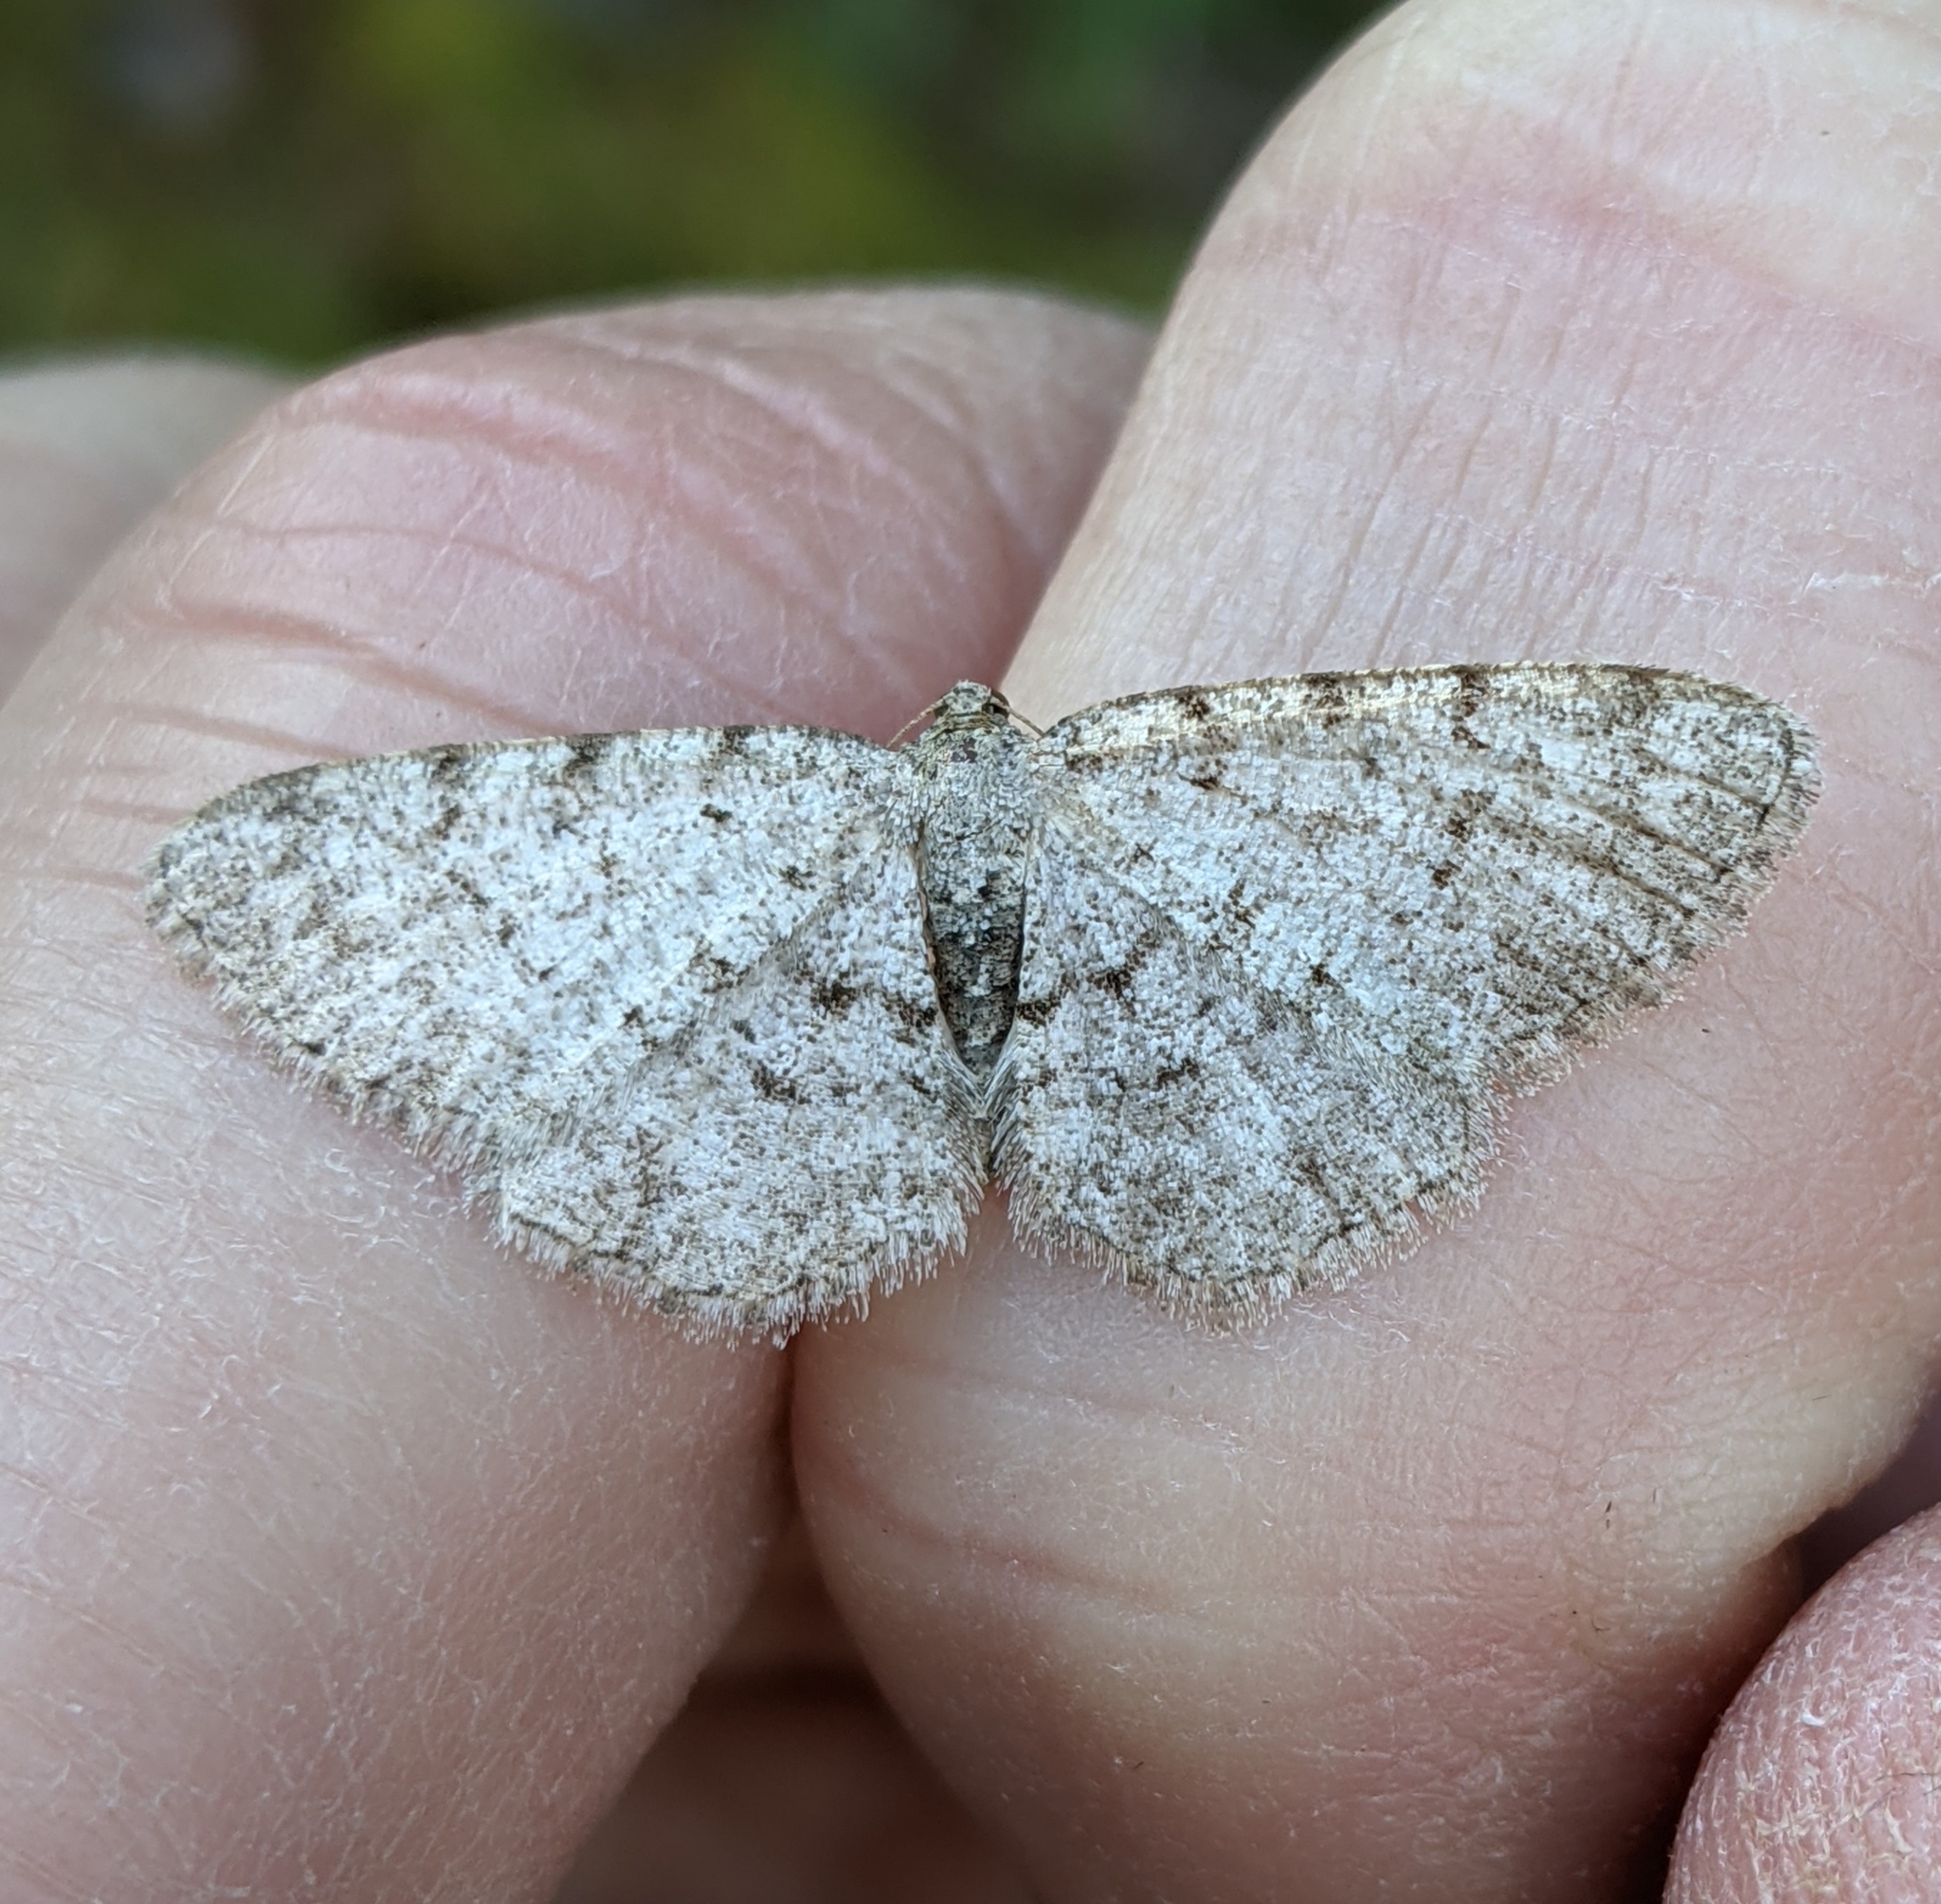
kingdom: Animalia
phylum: Arthropoda
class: Insecta
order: Lepidoptera
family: Geometridae
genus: Aethalura
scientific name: Aethalura intertexta
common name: Four-barred gray
